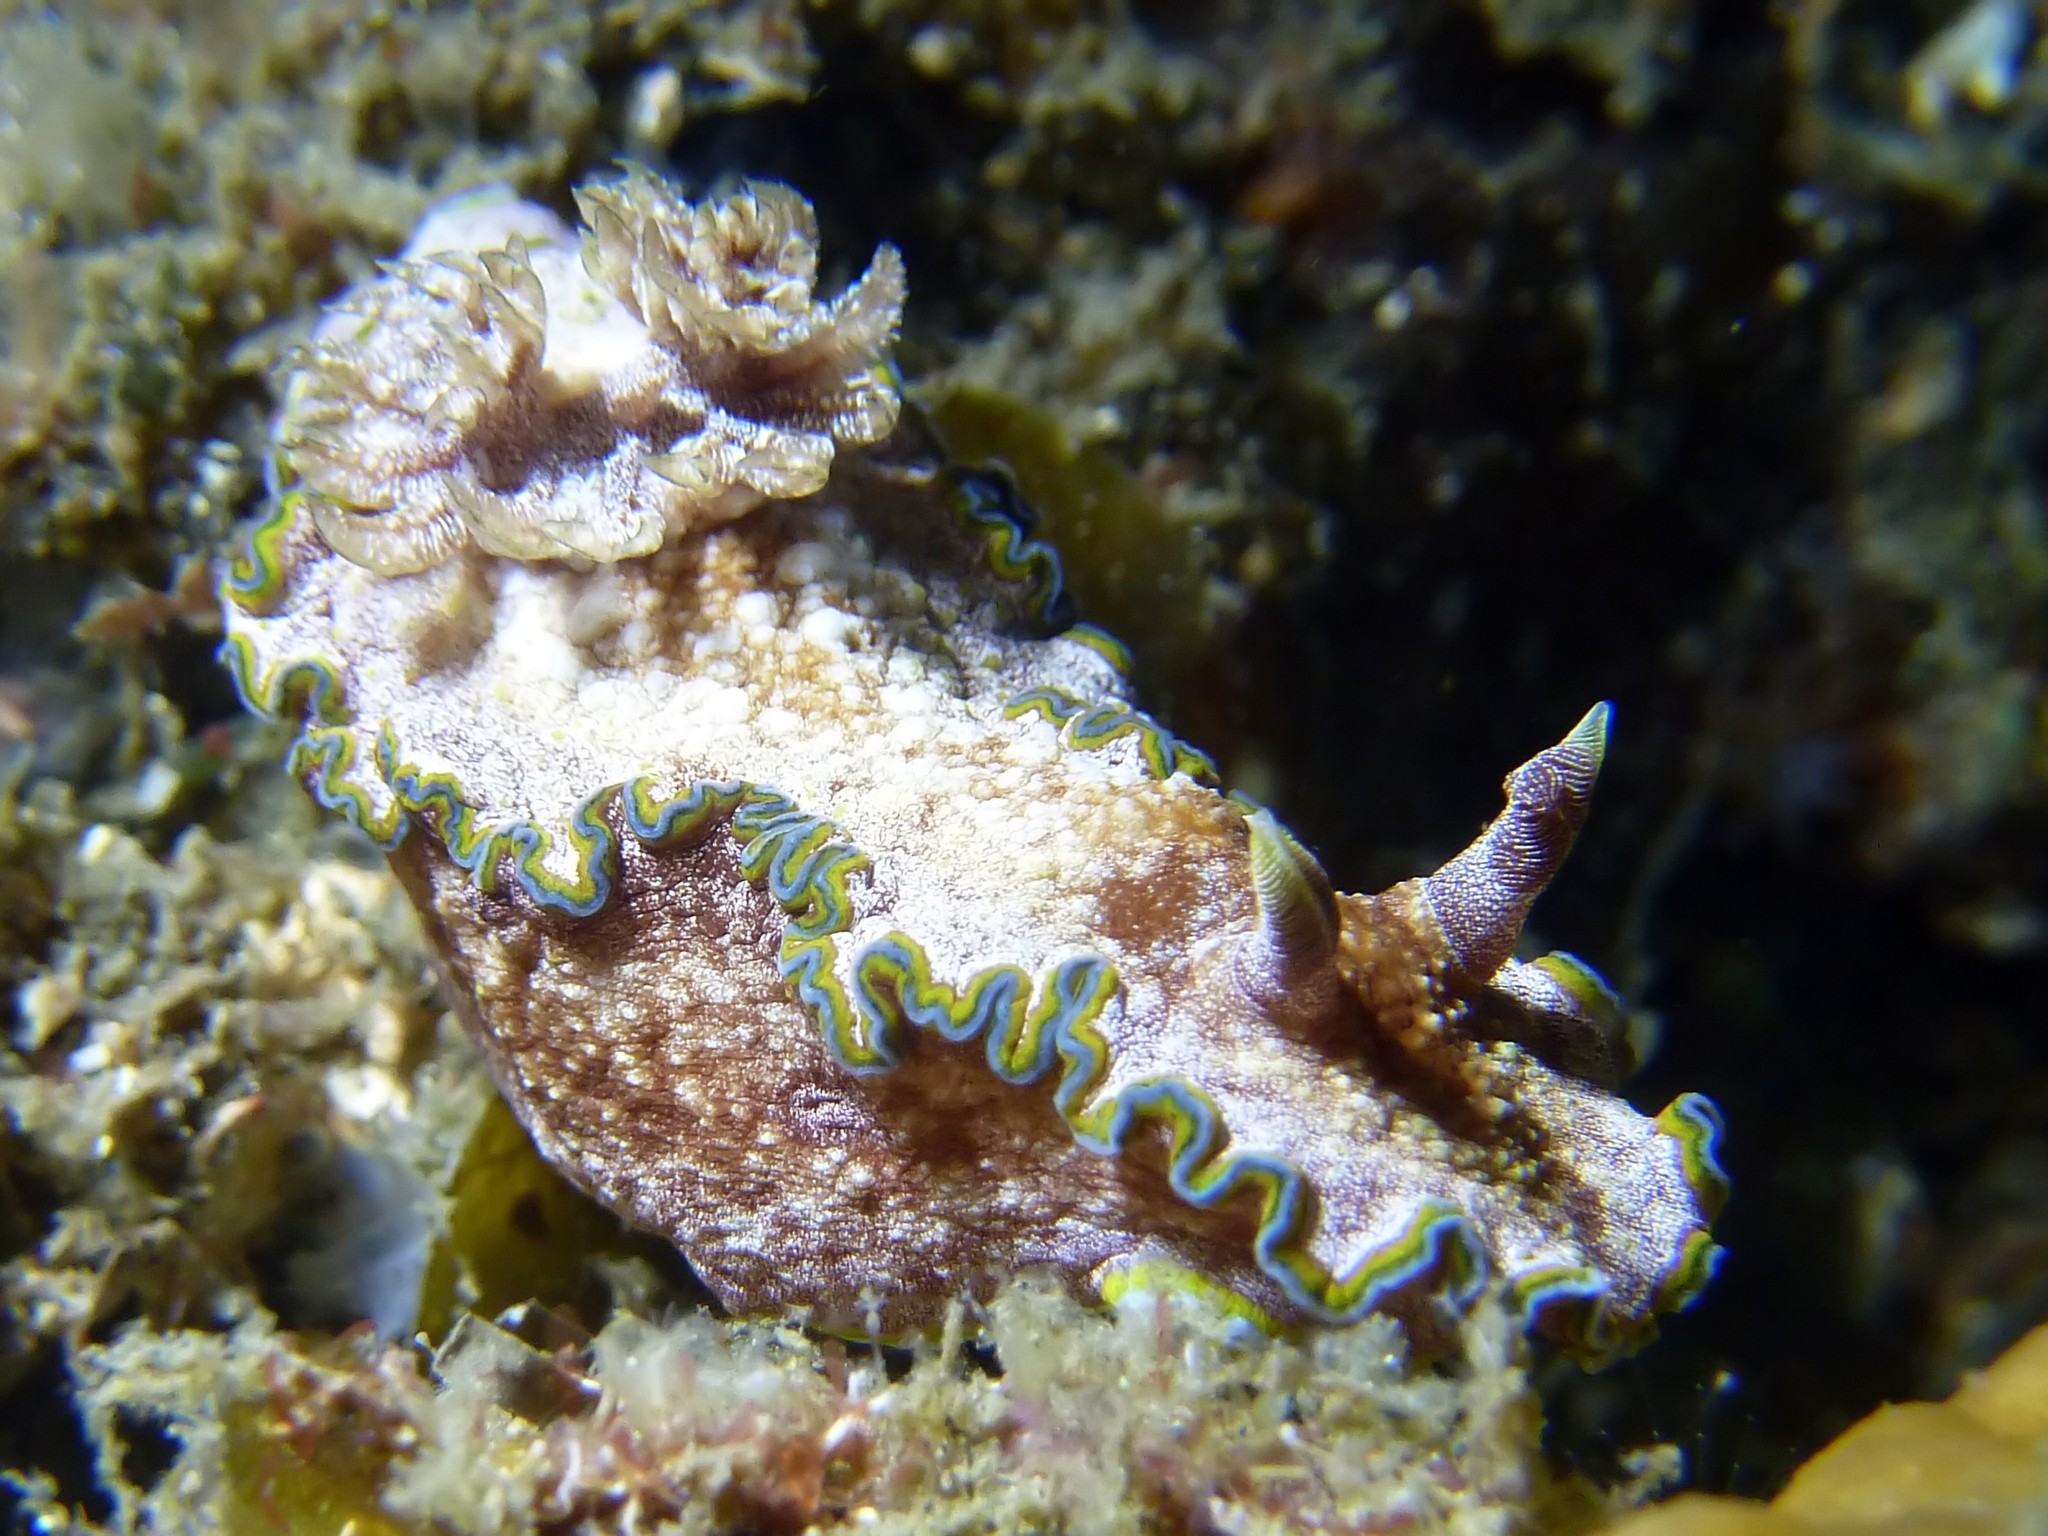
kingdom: Animalia
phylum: Mollusca
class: Gastropoda
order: Nudibranchia
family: Chromodorididae
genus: Glossodoris
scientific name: Glossodoris acosti
